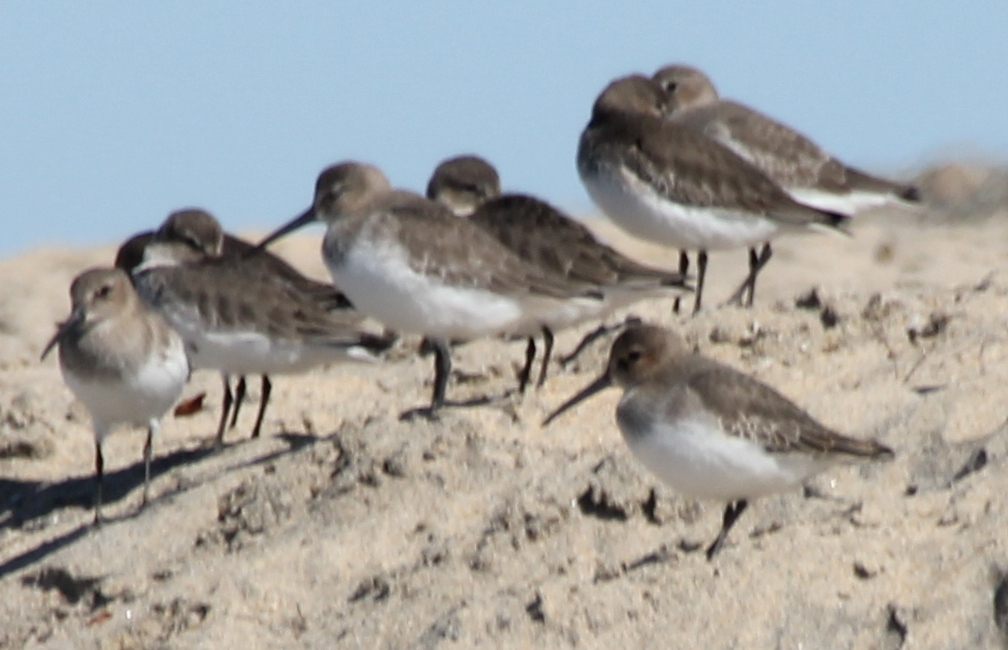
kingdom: Animalia
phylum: Chordata
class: Aves
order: Charadriiformes
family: Scolopacidae
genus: Calidris
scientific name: Calidris alpina
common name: Dunlin
